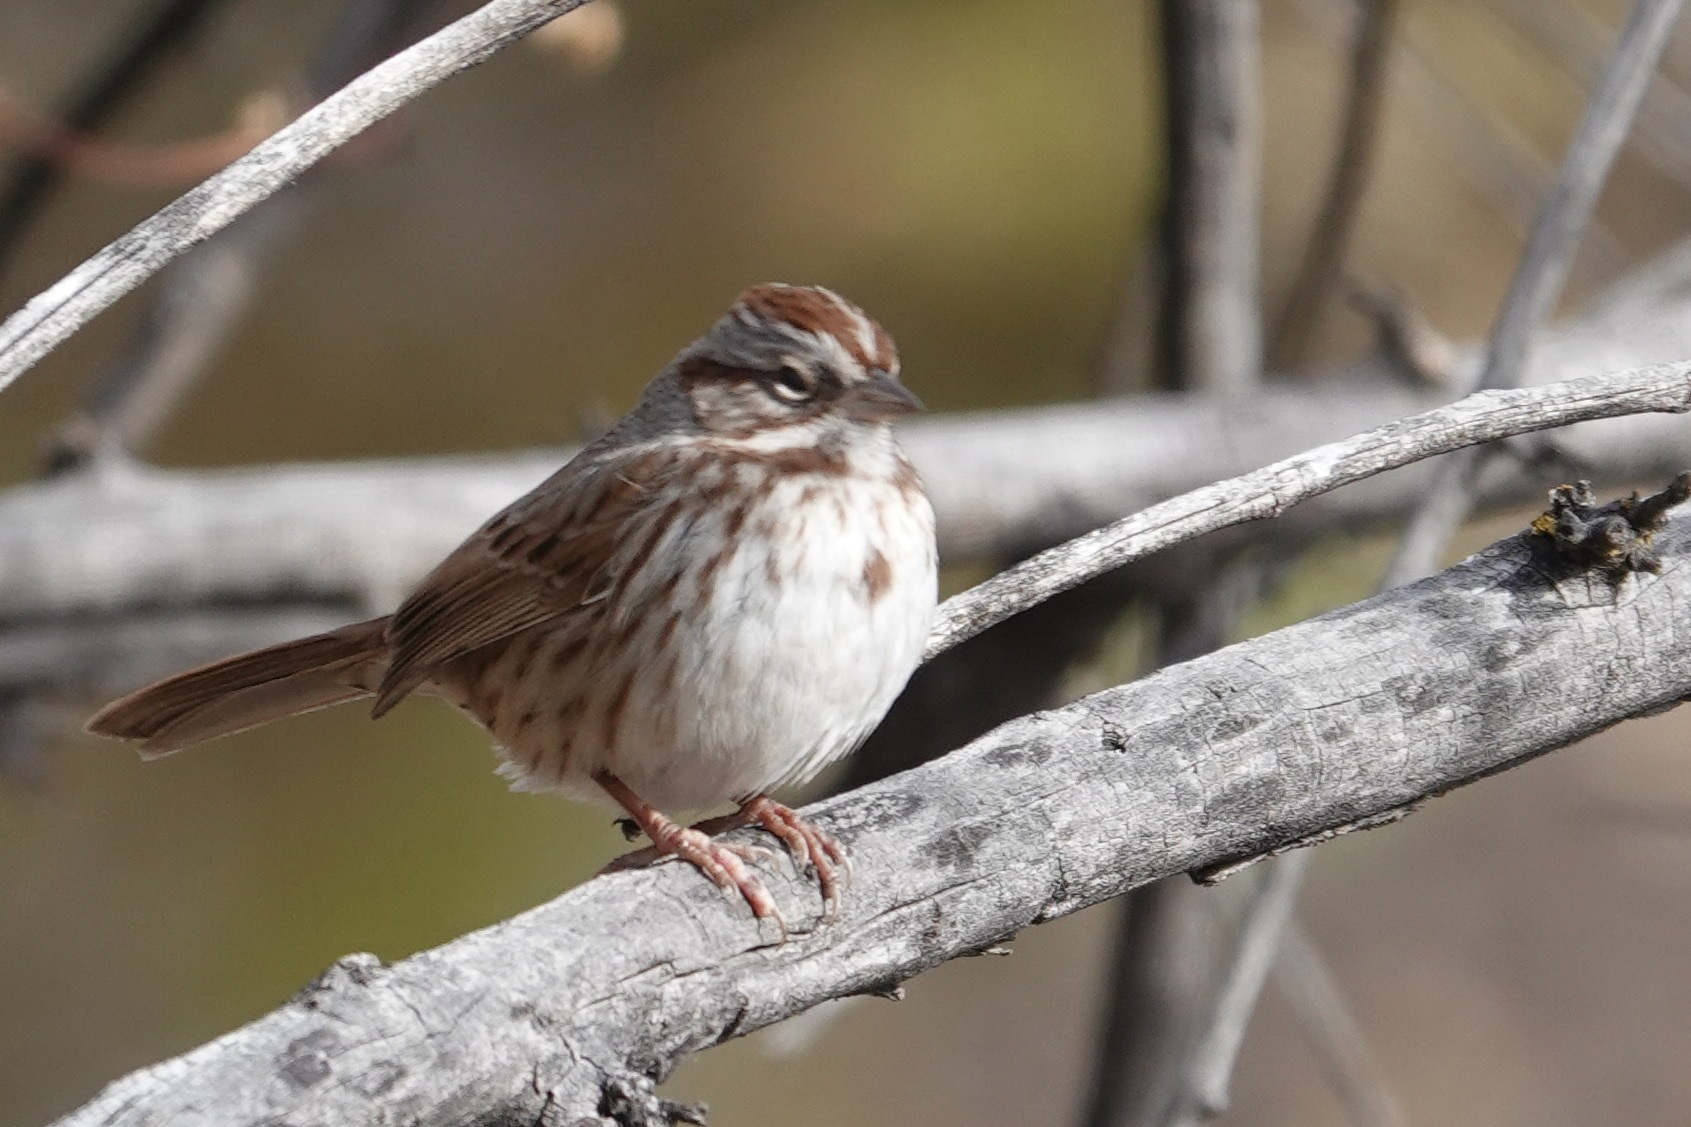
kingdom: Animalia
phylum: Chordata
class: Aves
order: Passeriformes
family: Passerellidae
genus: Melospiza
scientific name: Melospiza melodia
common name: Song sparrow
